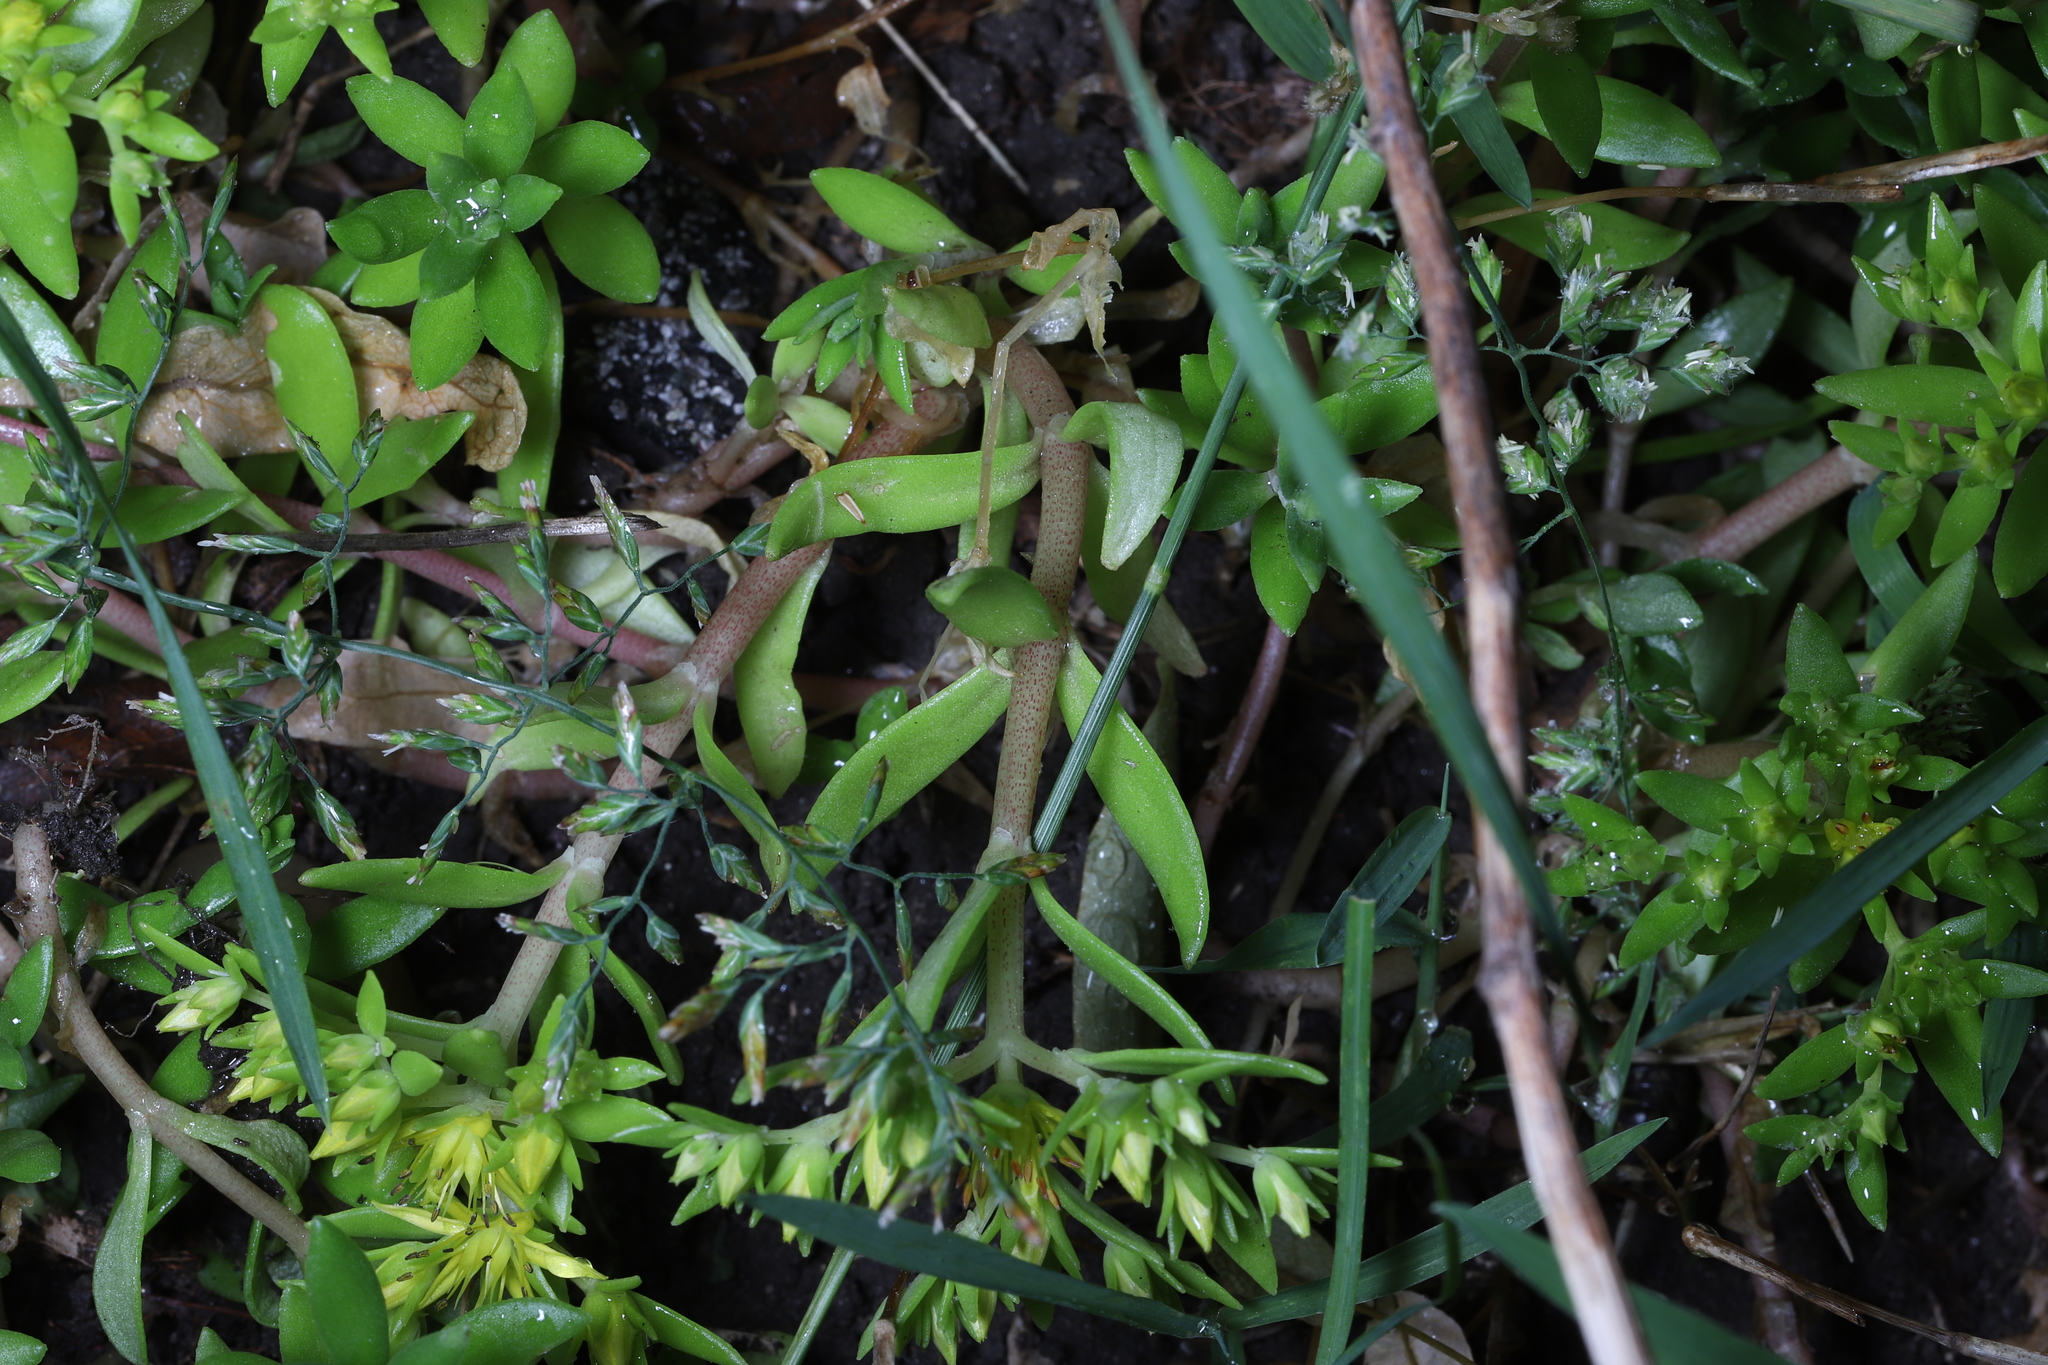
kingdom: Plantae
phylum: Tracheophyta
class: Magnoliopsida
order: Saxifragales
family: Crassulaceae
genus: Sedum
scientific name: Sedum sarmentosum
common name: Stringy stonecrop
